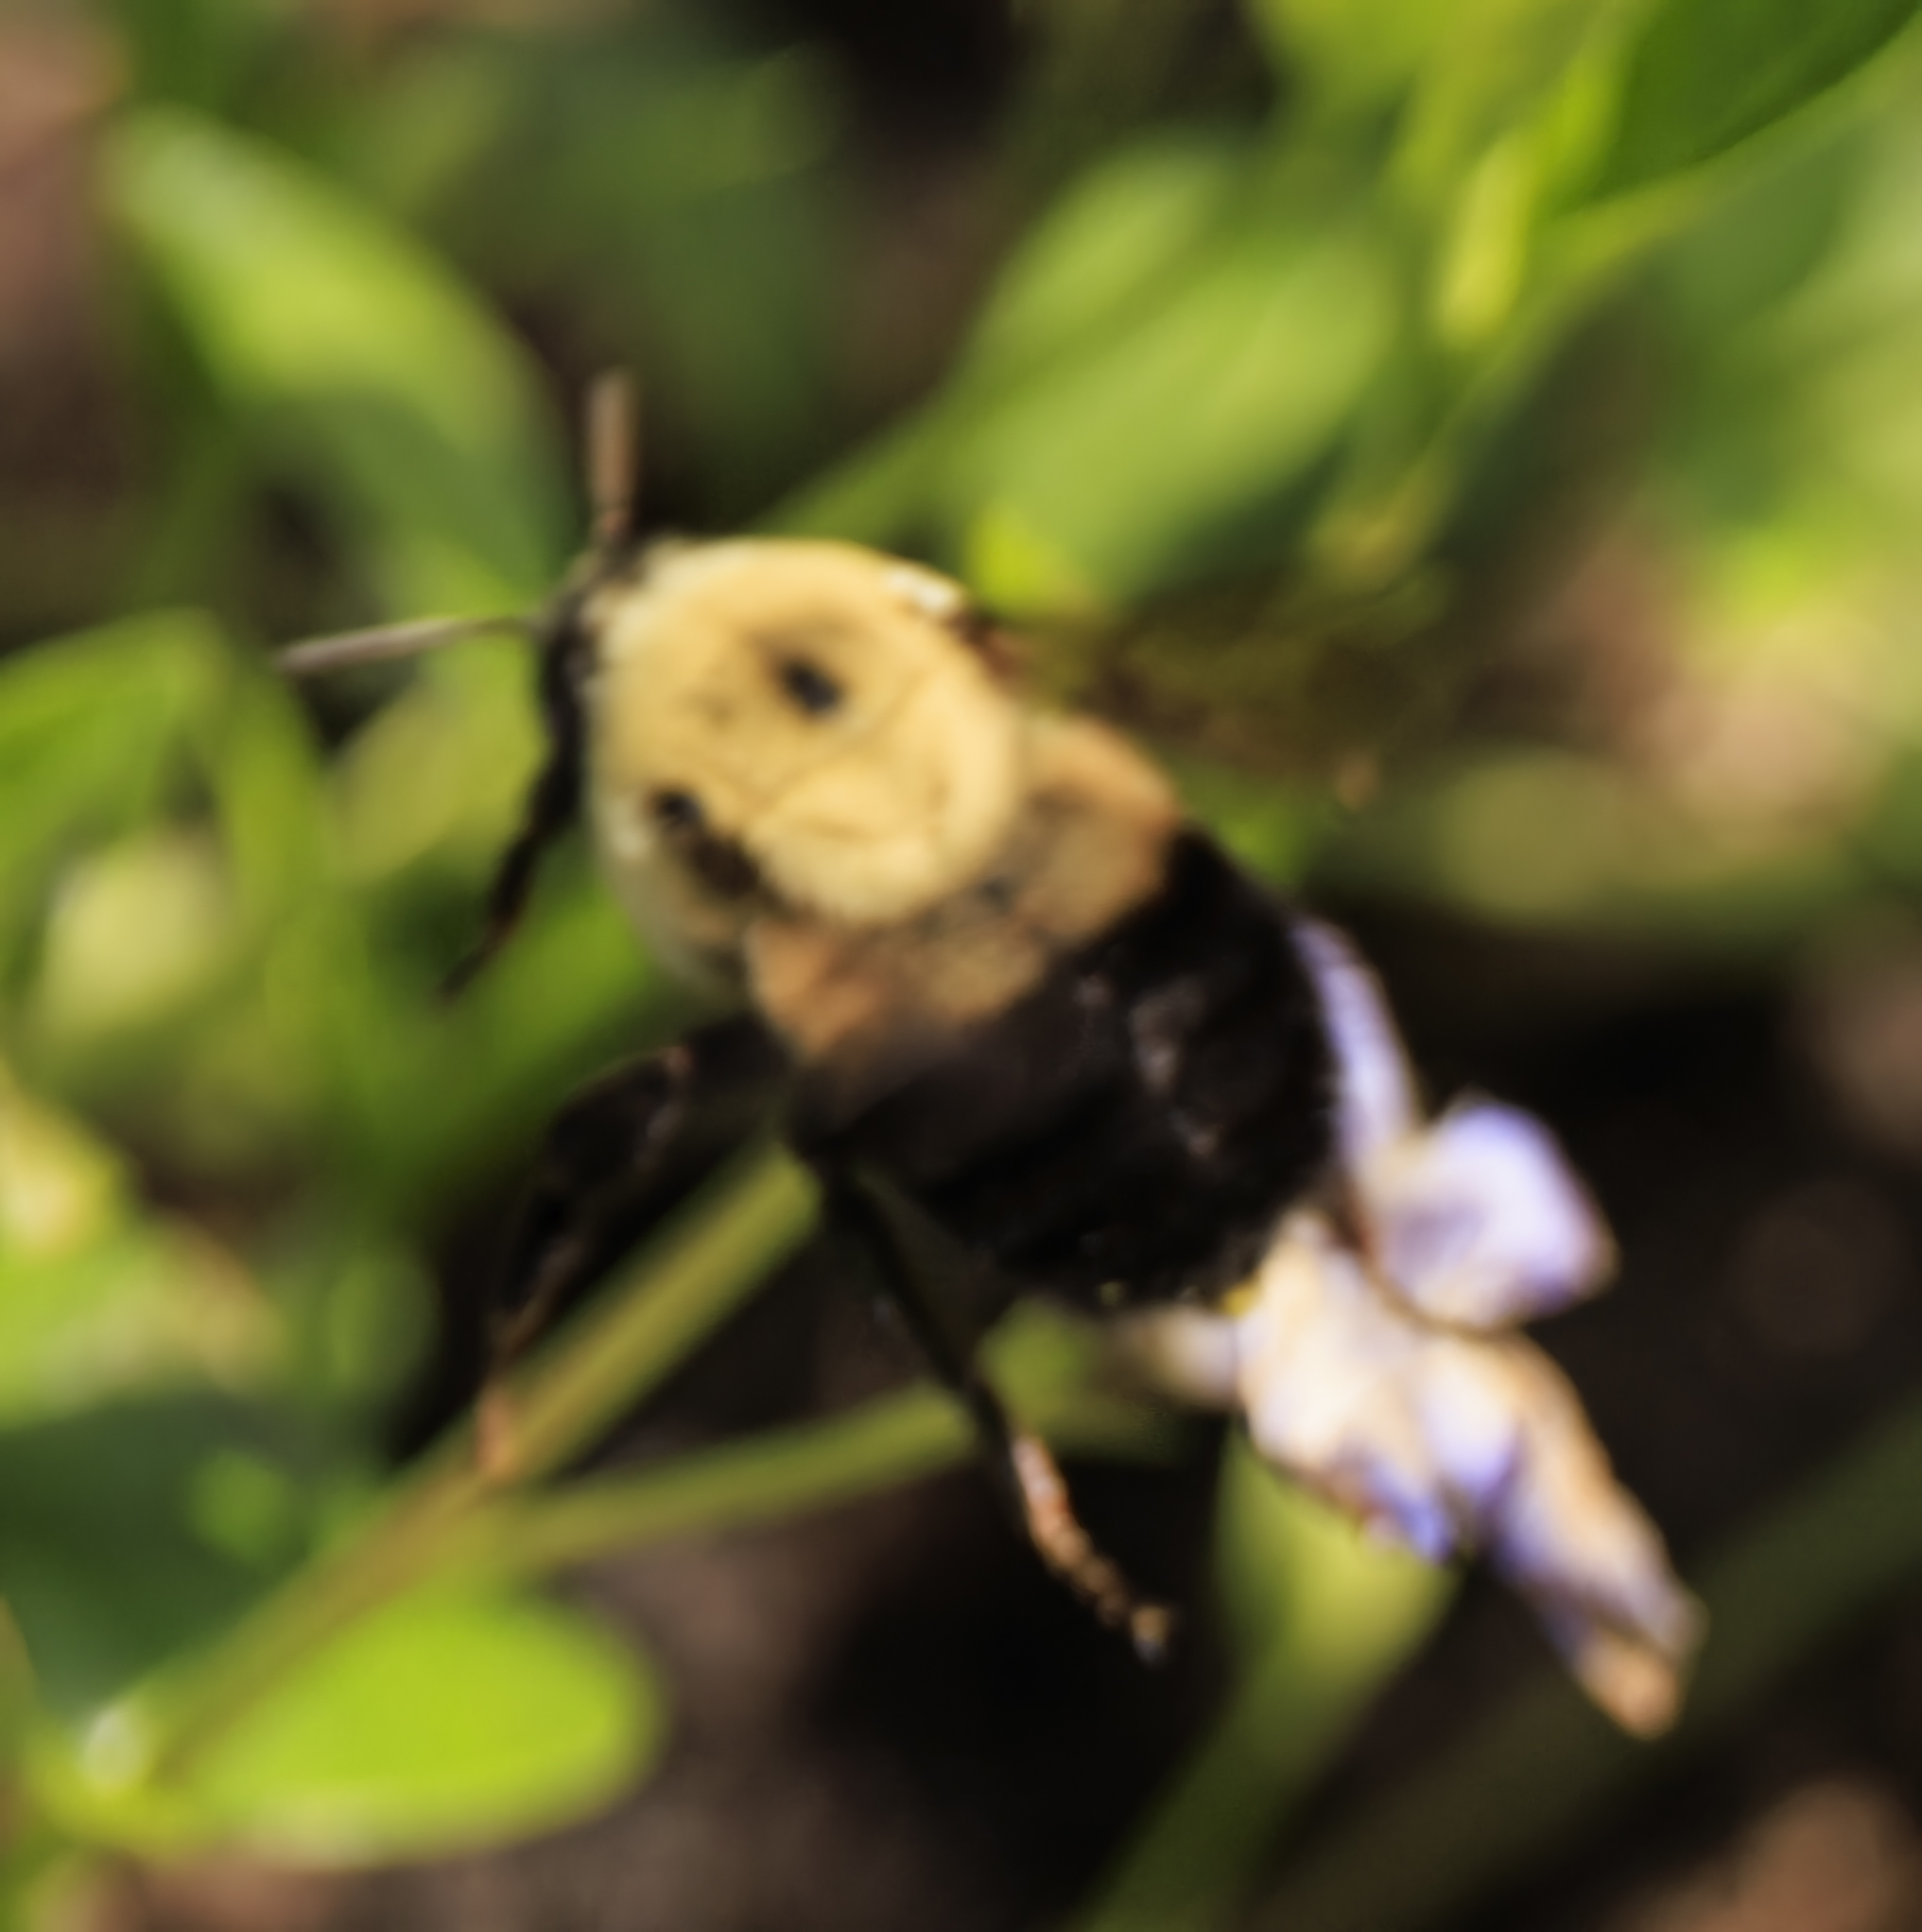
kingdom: Animalia
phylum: Arthropoda
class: Insecta
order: Hymenoptera
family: Apidae
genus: Bombus
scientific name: Bombus griseocollis
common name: Brown-belted bumble bee
